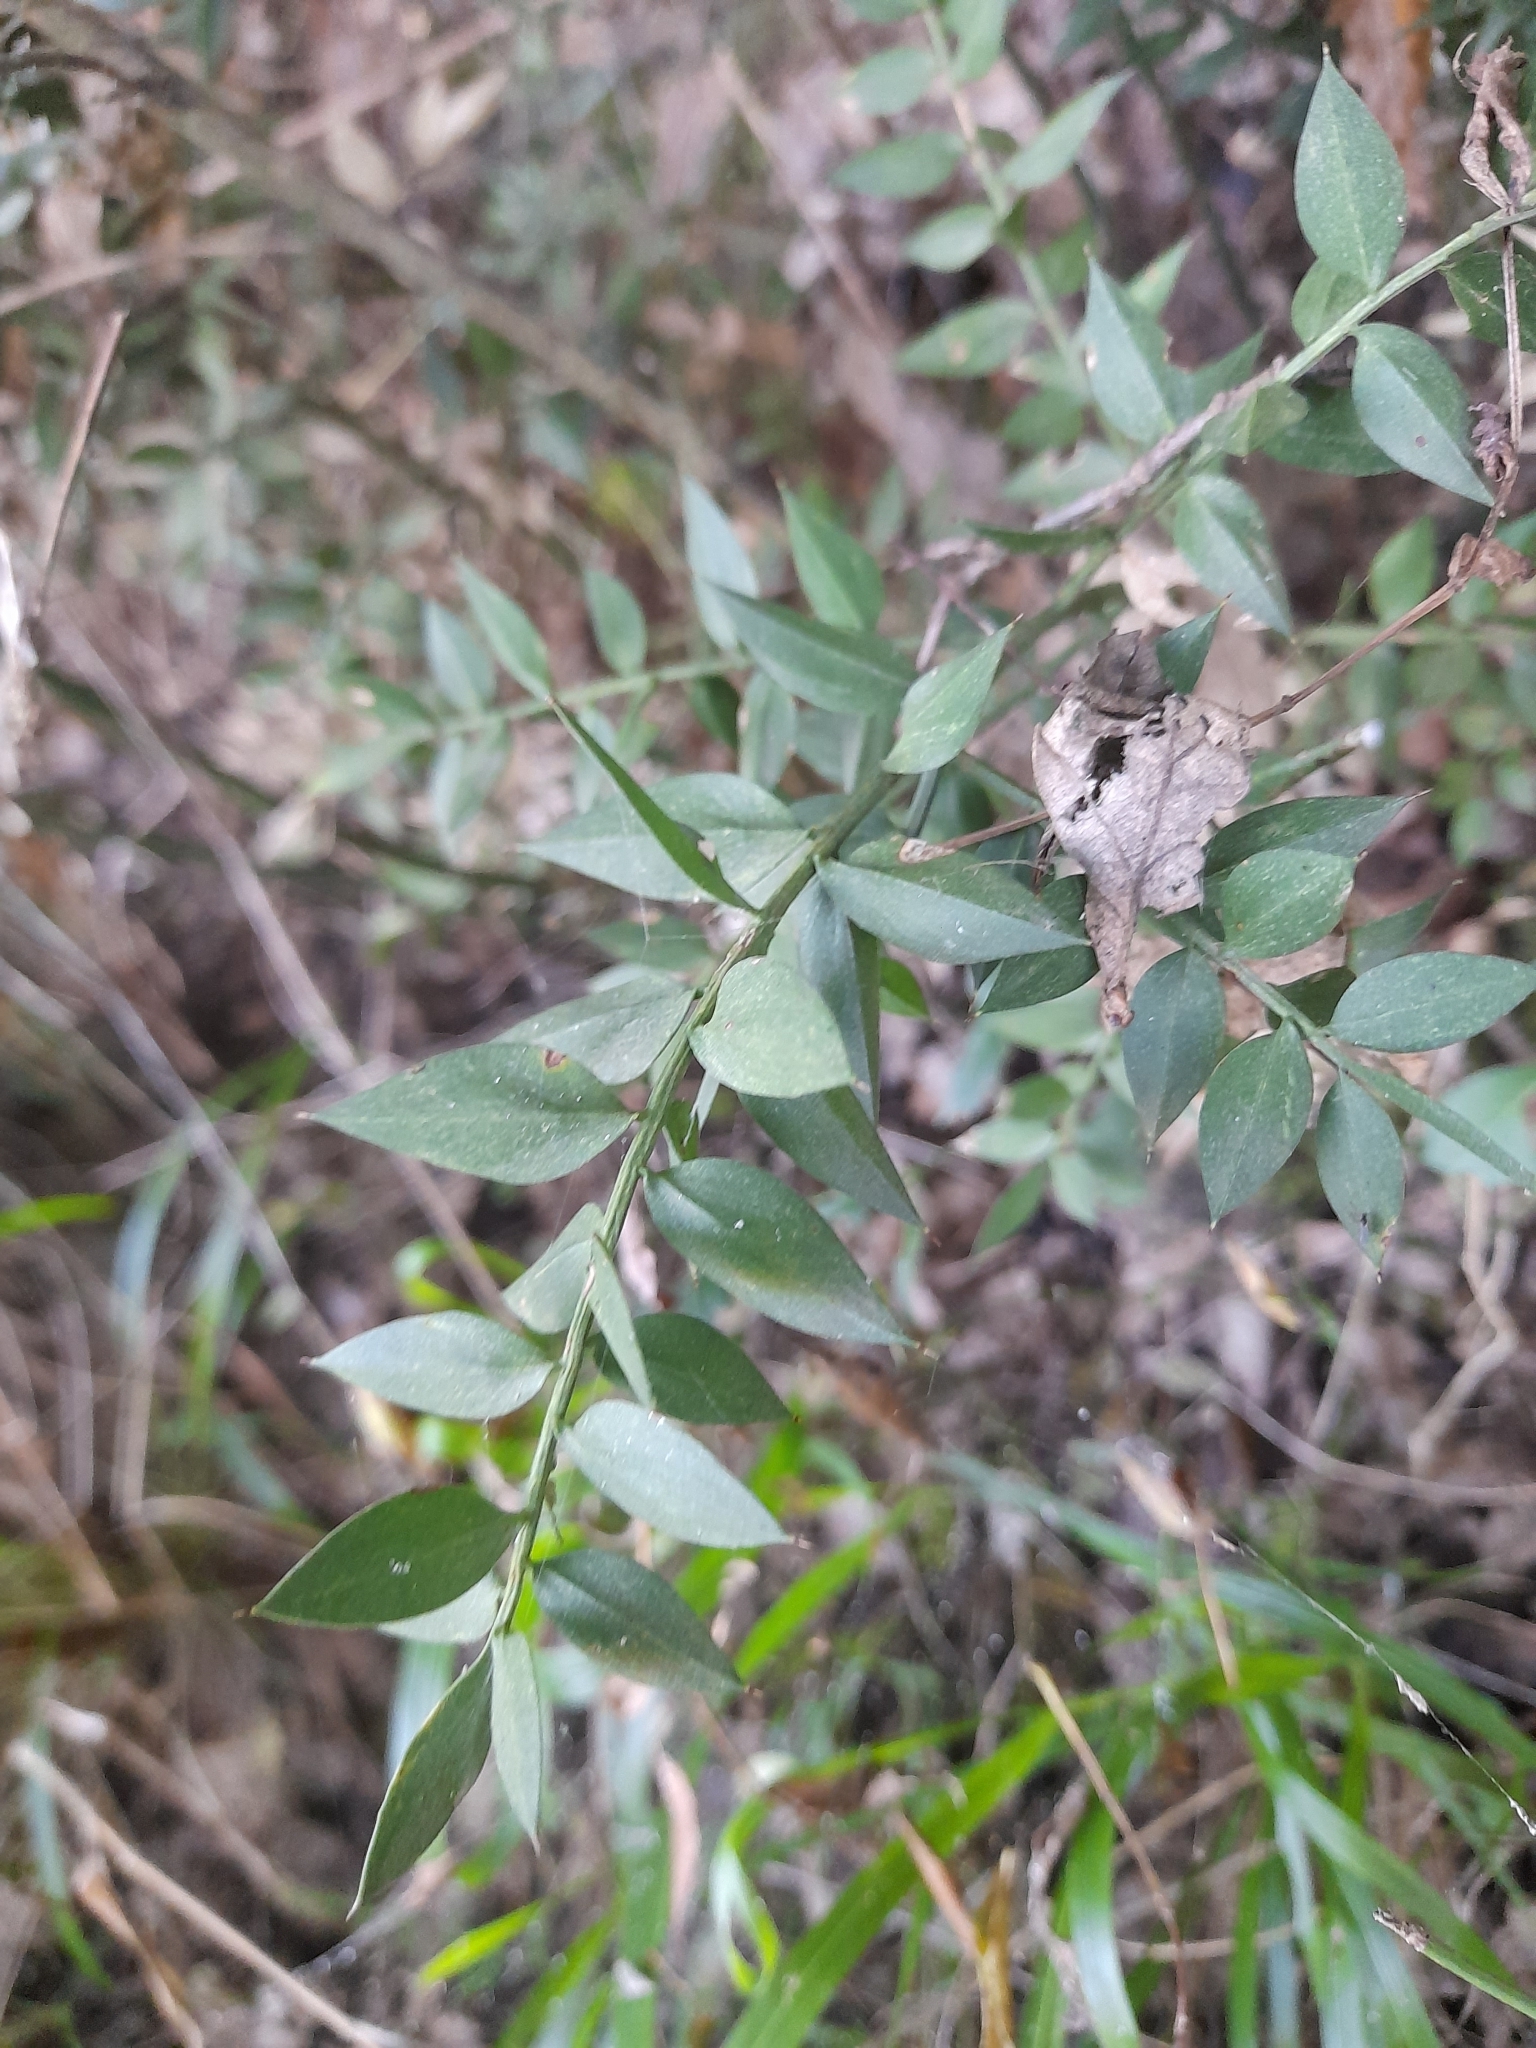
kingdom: Plantae
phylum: Tracheophyta
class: Liliopsida
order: Asparagales
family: Asparagaceae
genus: Ruscus
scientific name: Ruscus aculeatus
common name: Butcher's-broom
